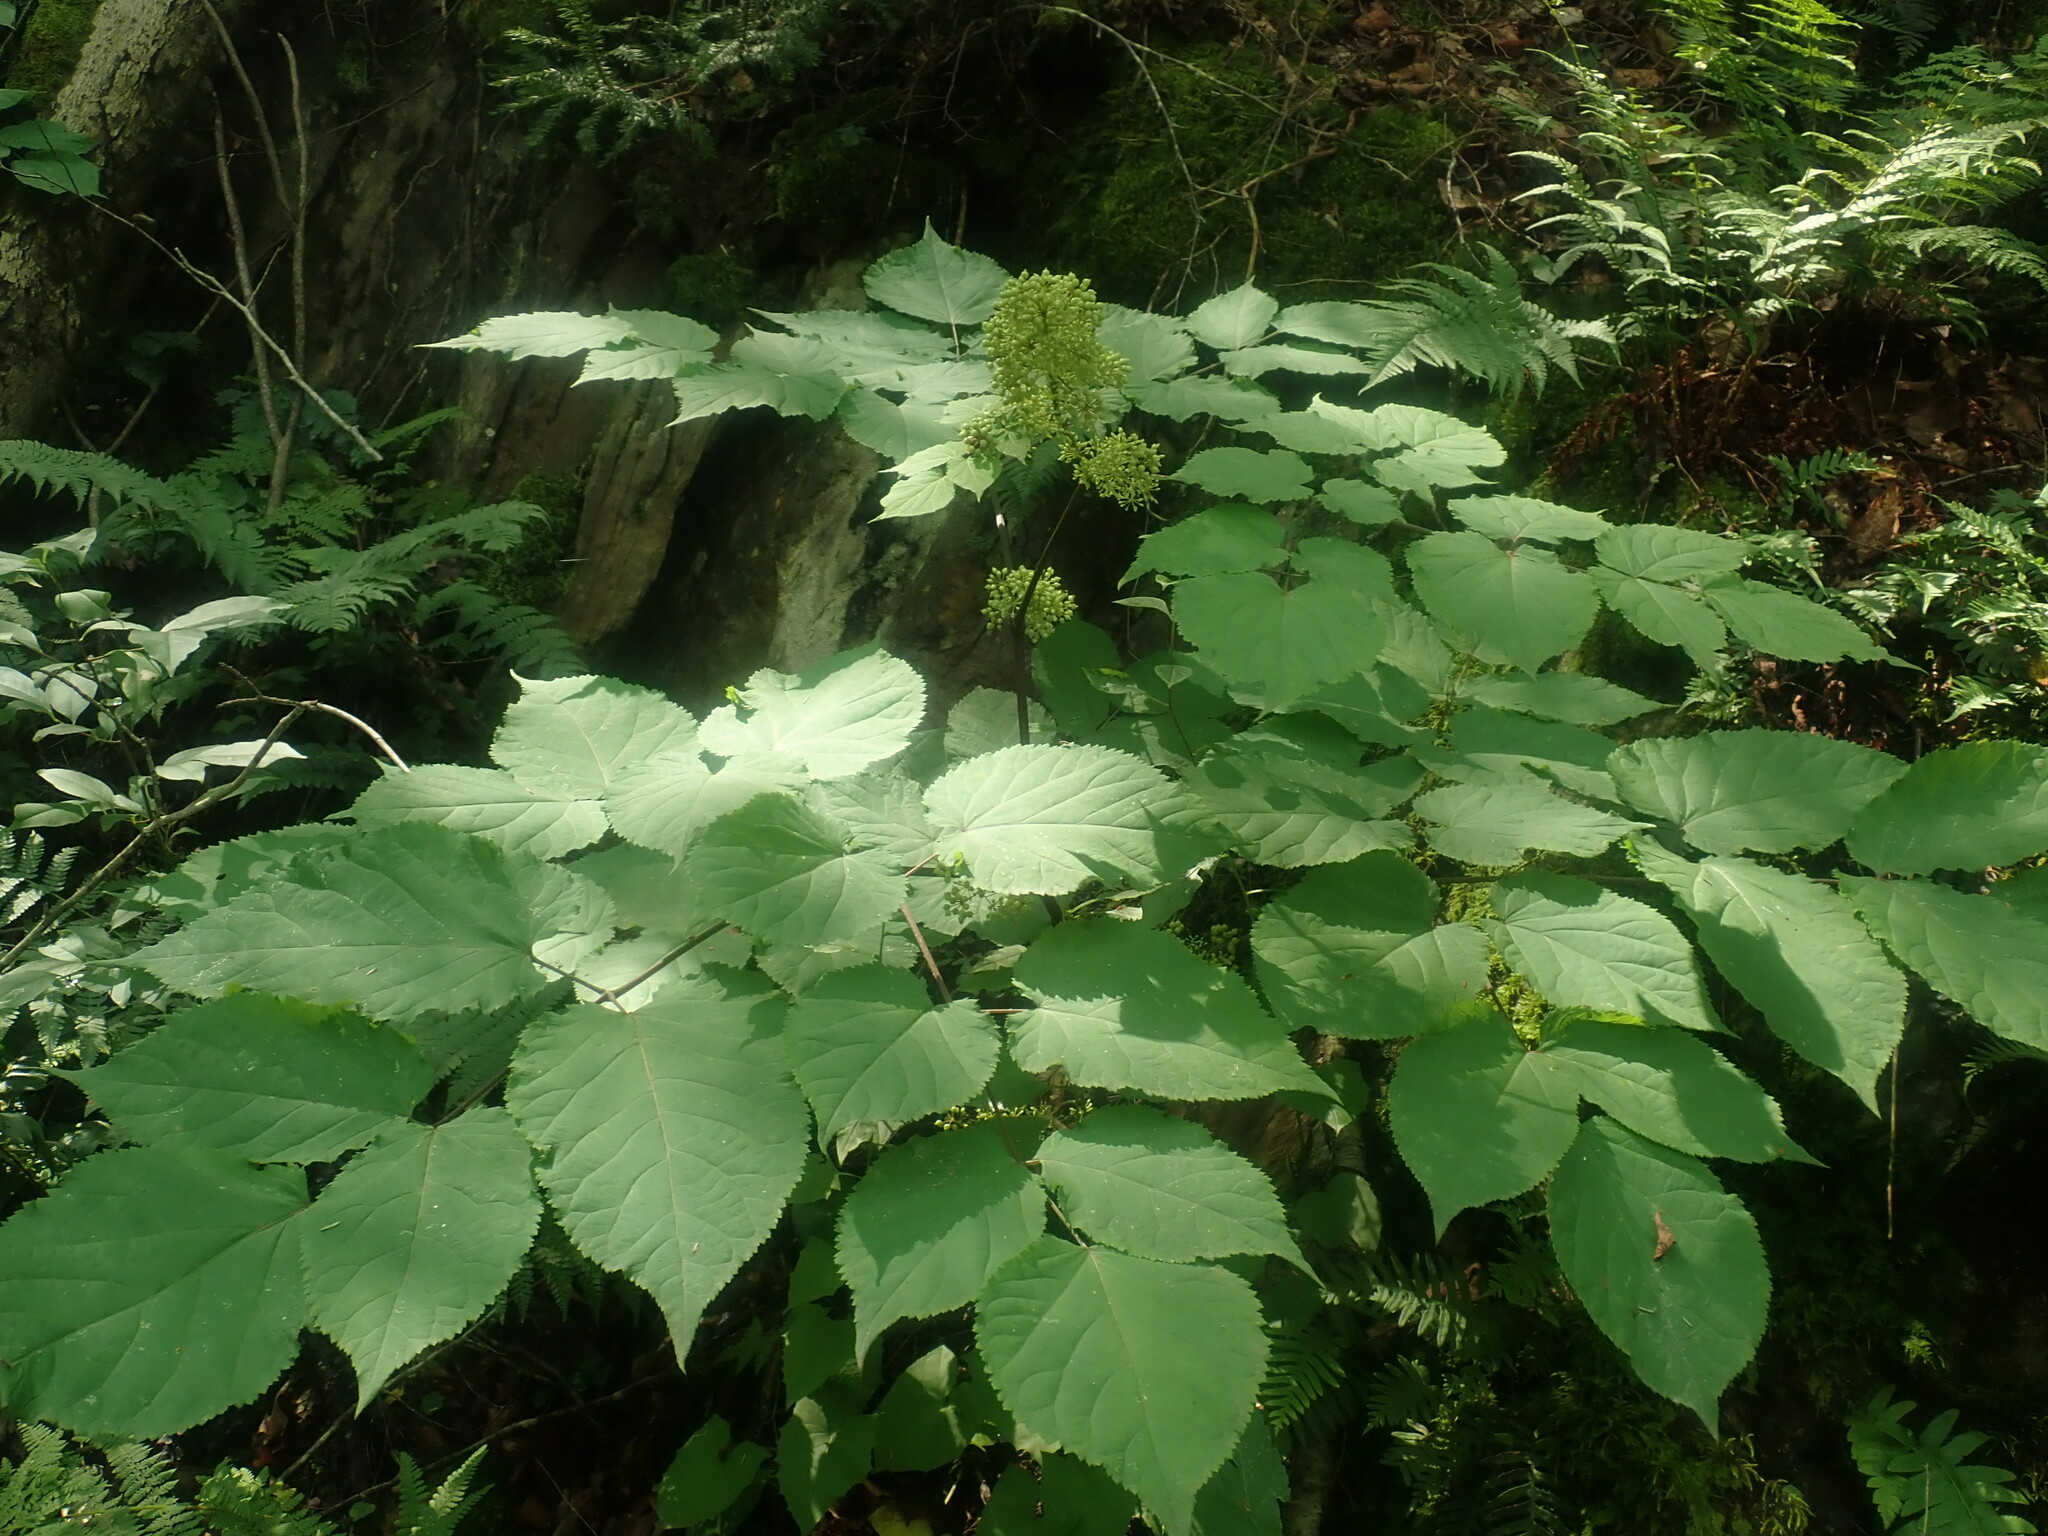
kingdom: Plantae
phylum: Tracheophyta
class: Magnoliopsida
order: Apiales
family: Araliaceae
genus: Aralia
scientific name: Aralia racemosa
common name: American-spikenard
